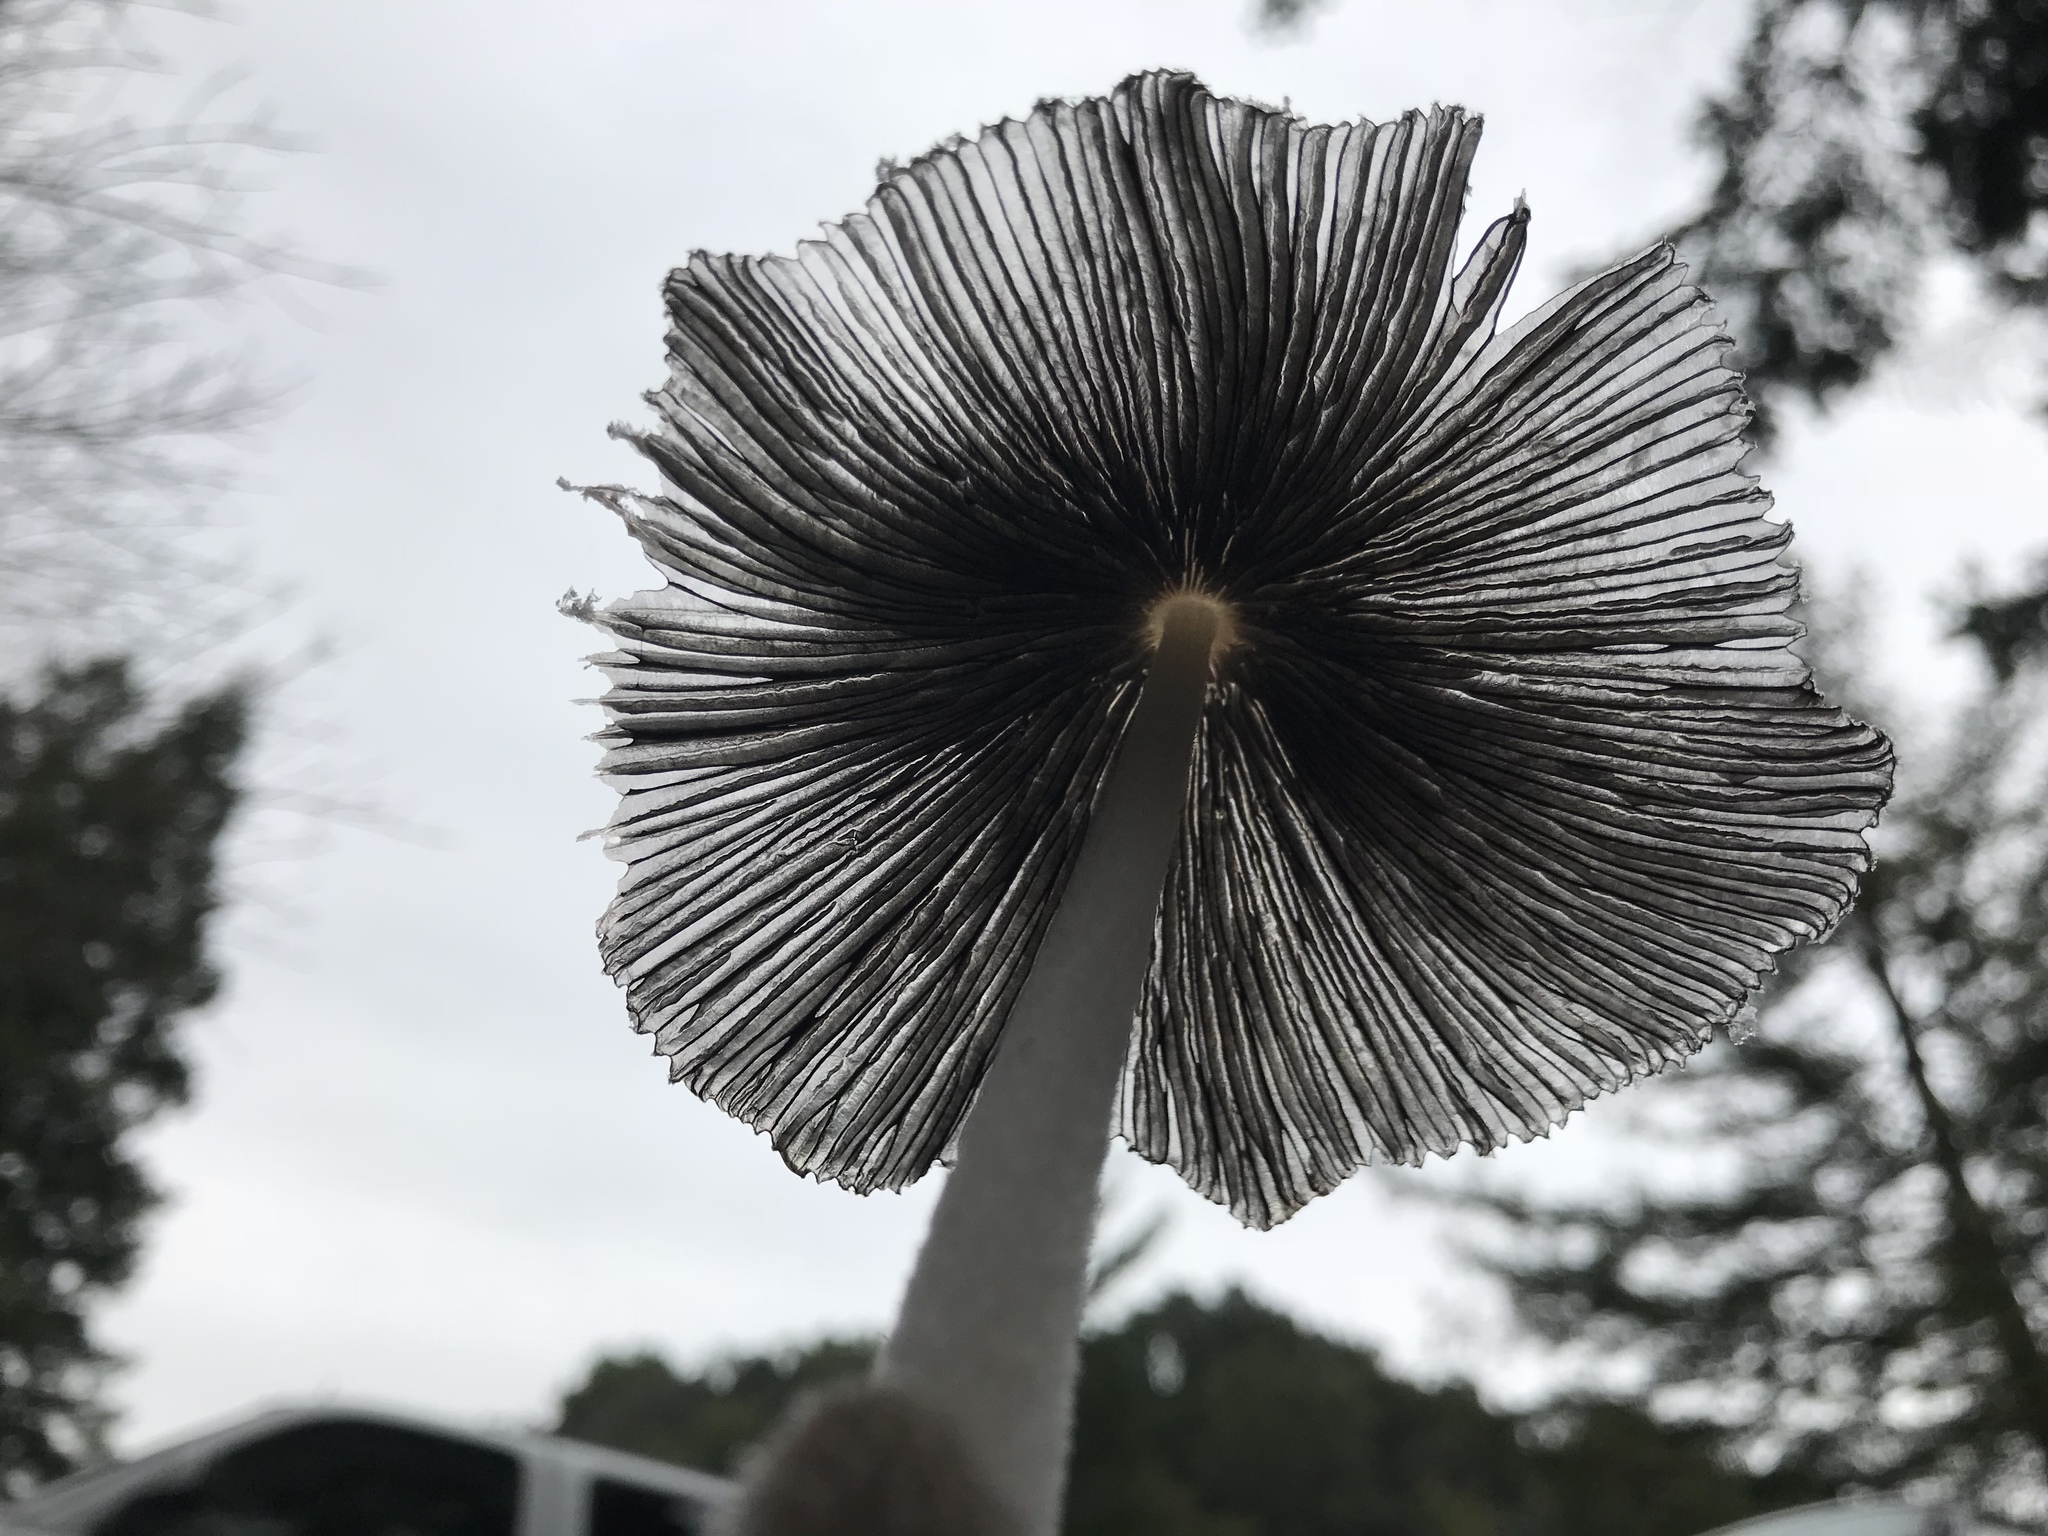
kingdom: Fungi
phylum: Basidiomycota
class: Agaricomycetes
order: Agaricales
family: Psathyrellaceae
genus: Coprinopsis
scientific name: Coprinopsis lagopus
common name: Hare'sfoot inkcap
